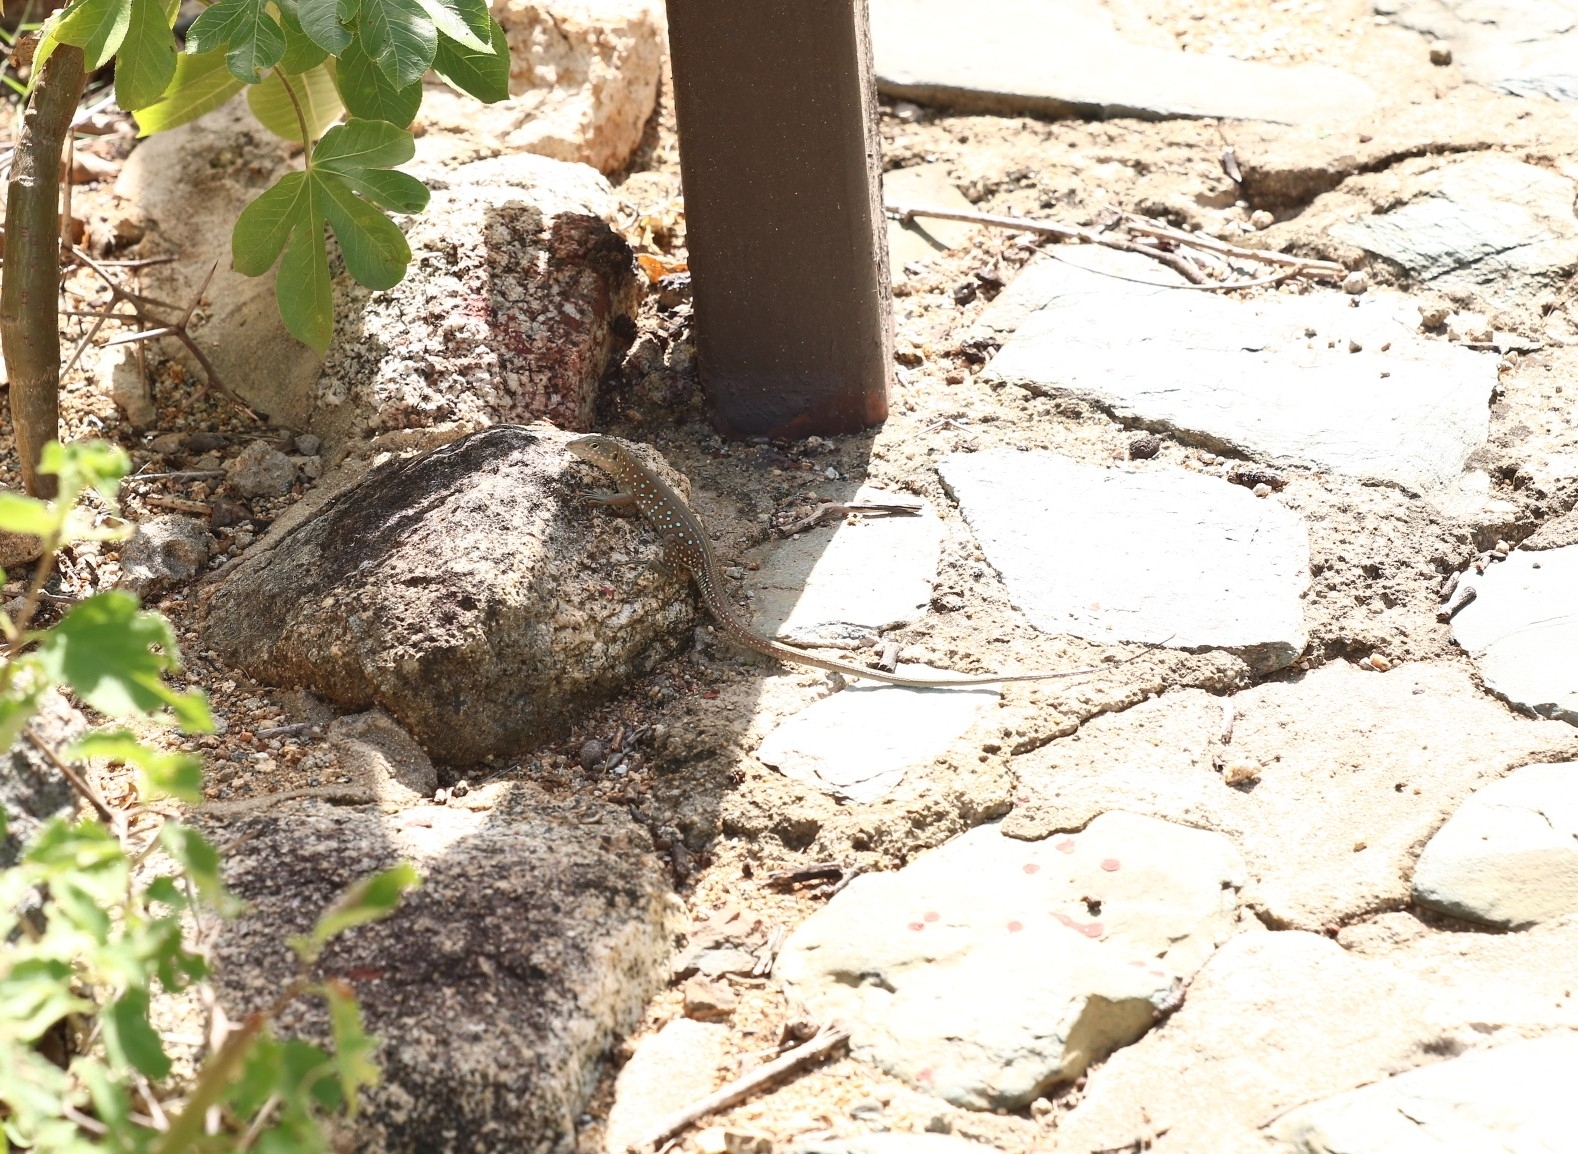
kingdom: Animalia
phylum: Chordata
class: Squamata
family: Teiidae
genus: Cnemidophorus
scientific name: Cnemidophorus arubensis
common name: Aruba whiptail
